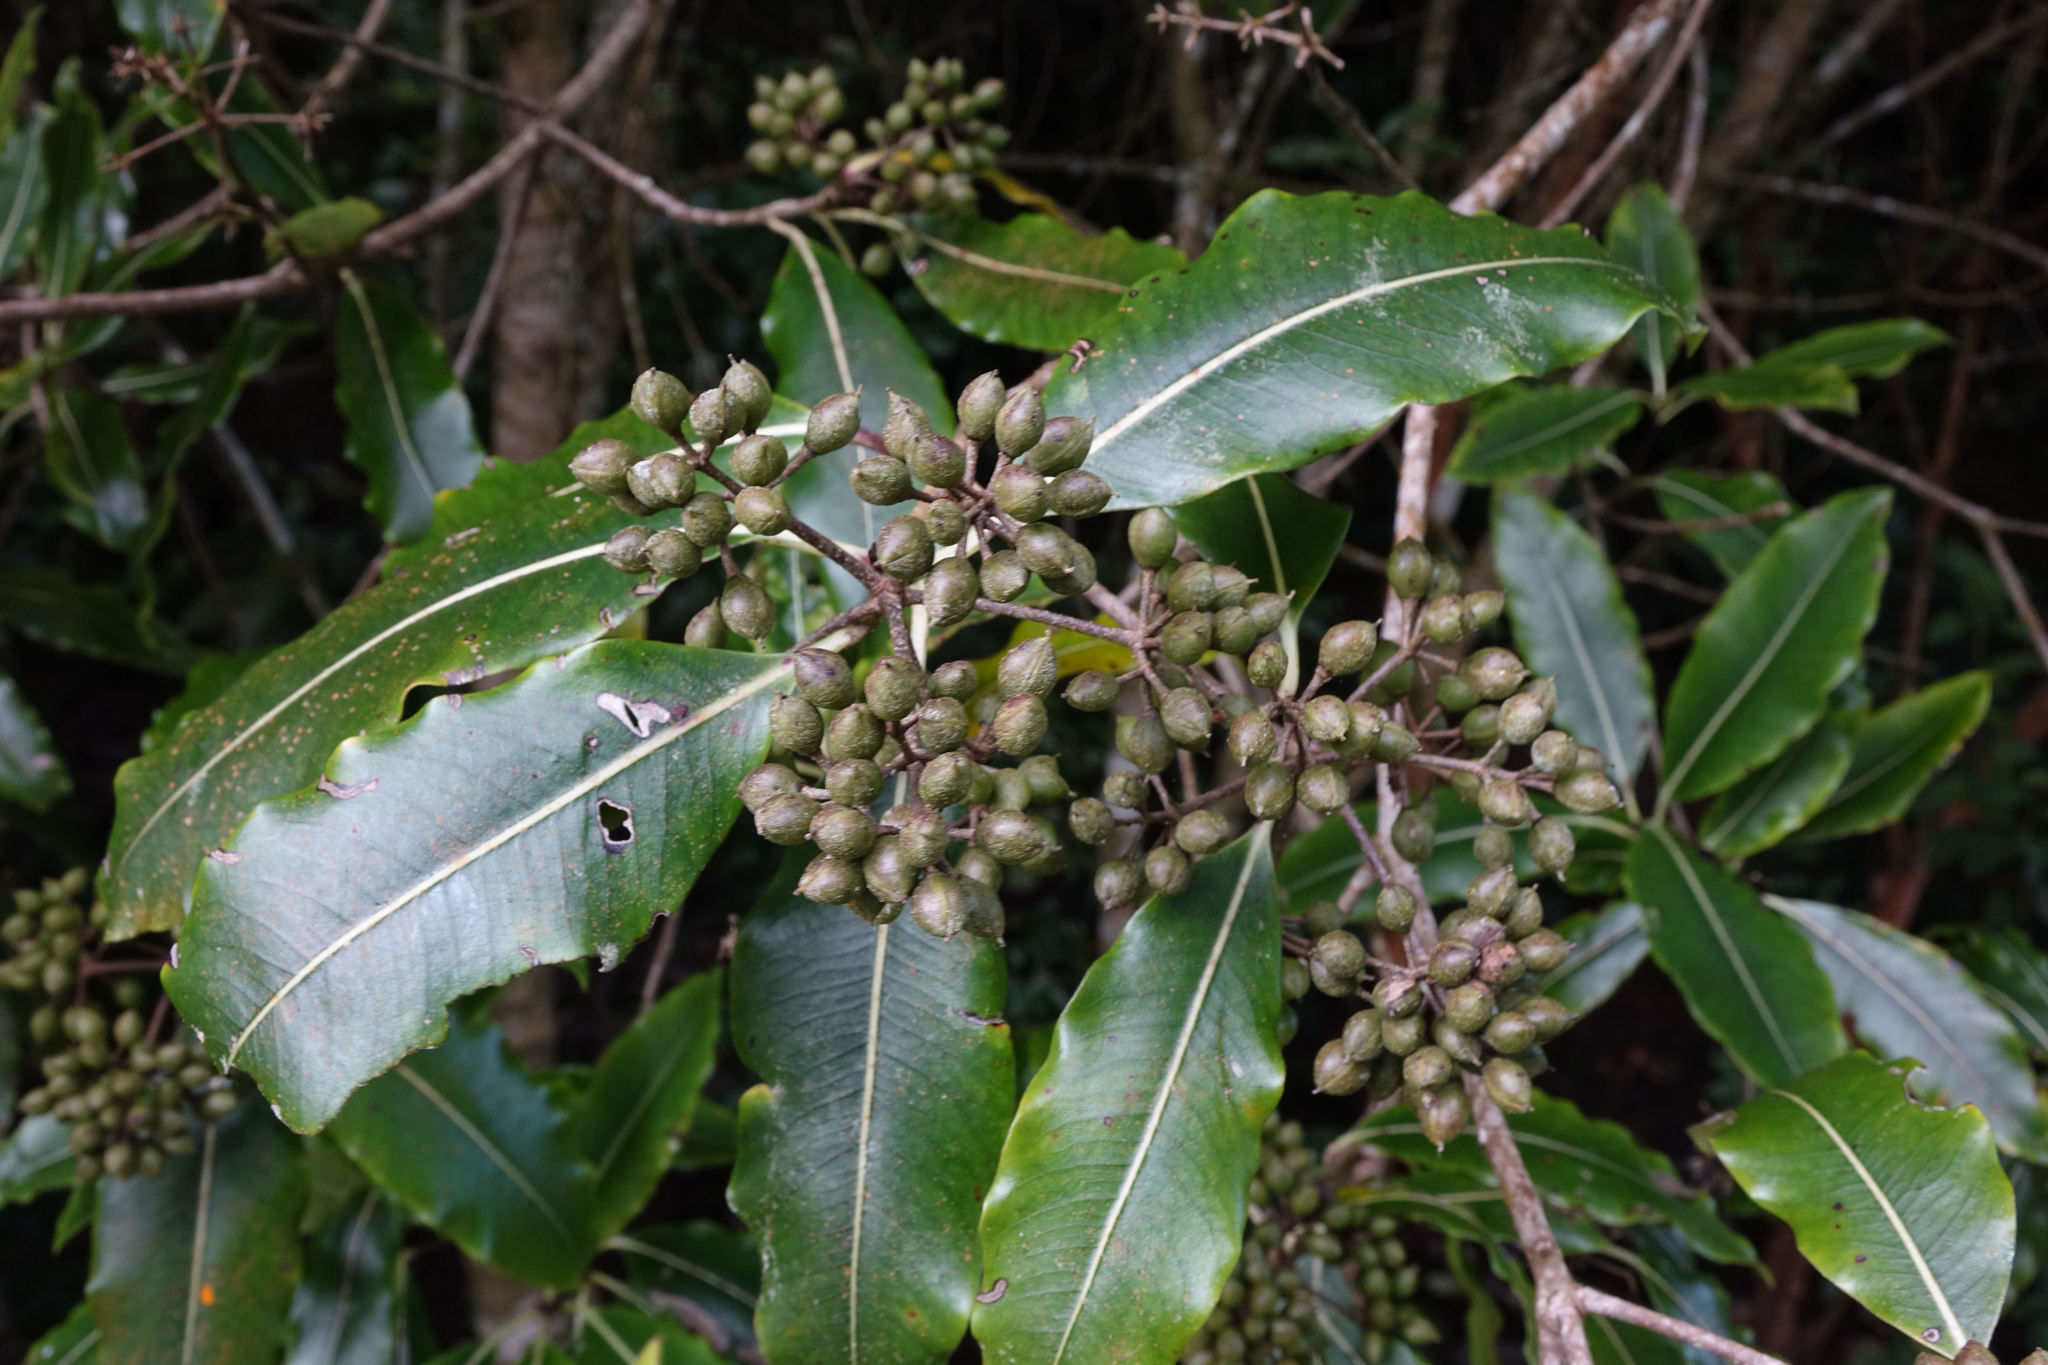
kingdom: Plantae
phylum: Tracheophyta
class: Magnoliopsida
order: Apiales
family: Pittosporaceae
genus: Pittosporum
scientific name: Pittosporum eugenioides
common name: Lemonwood
